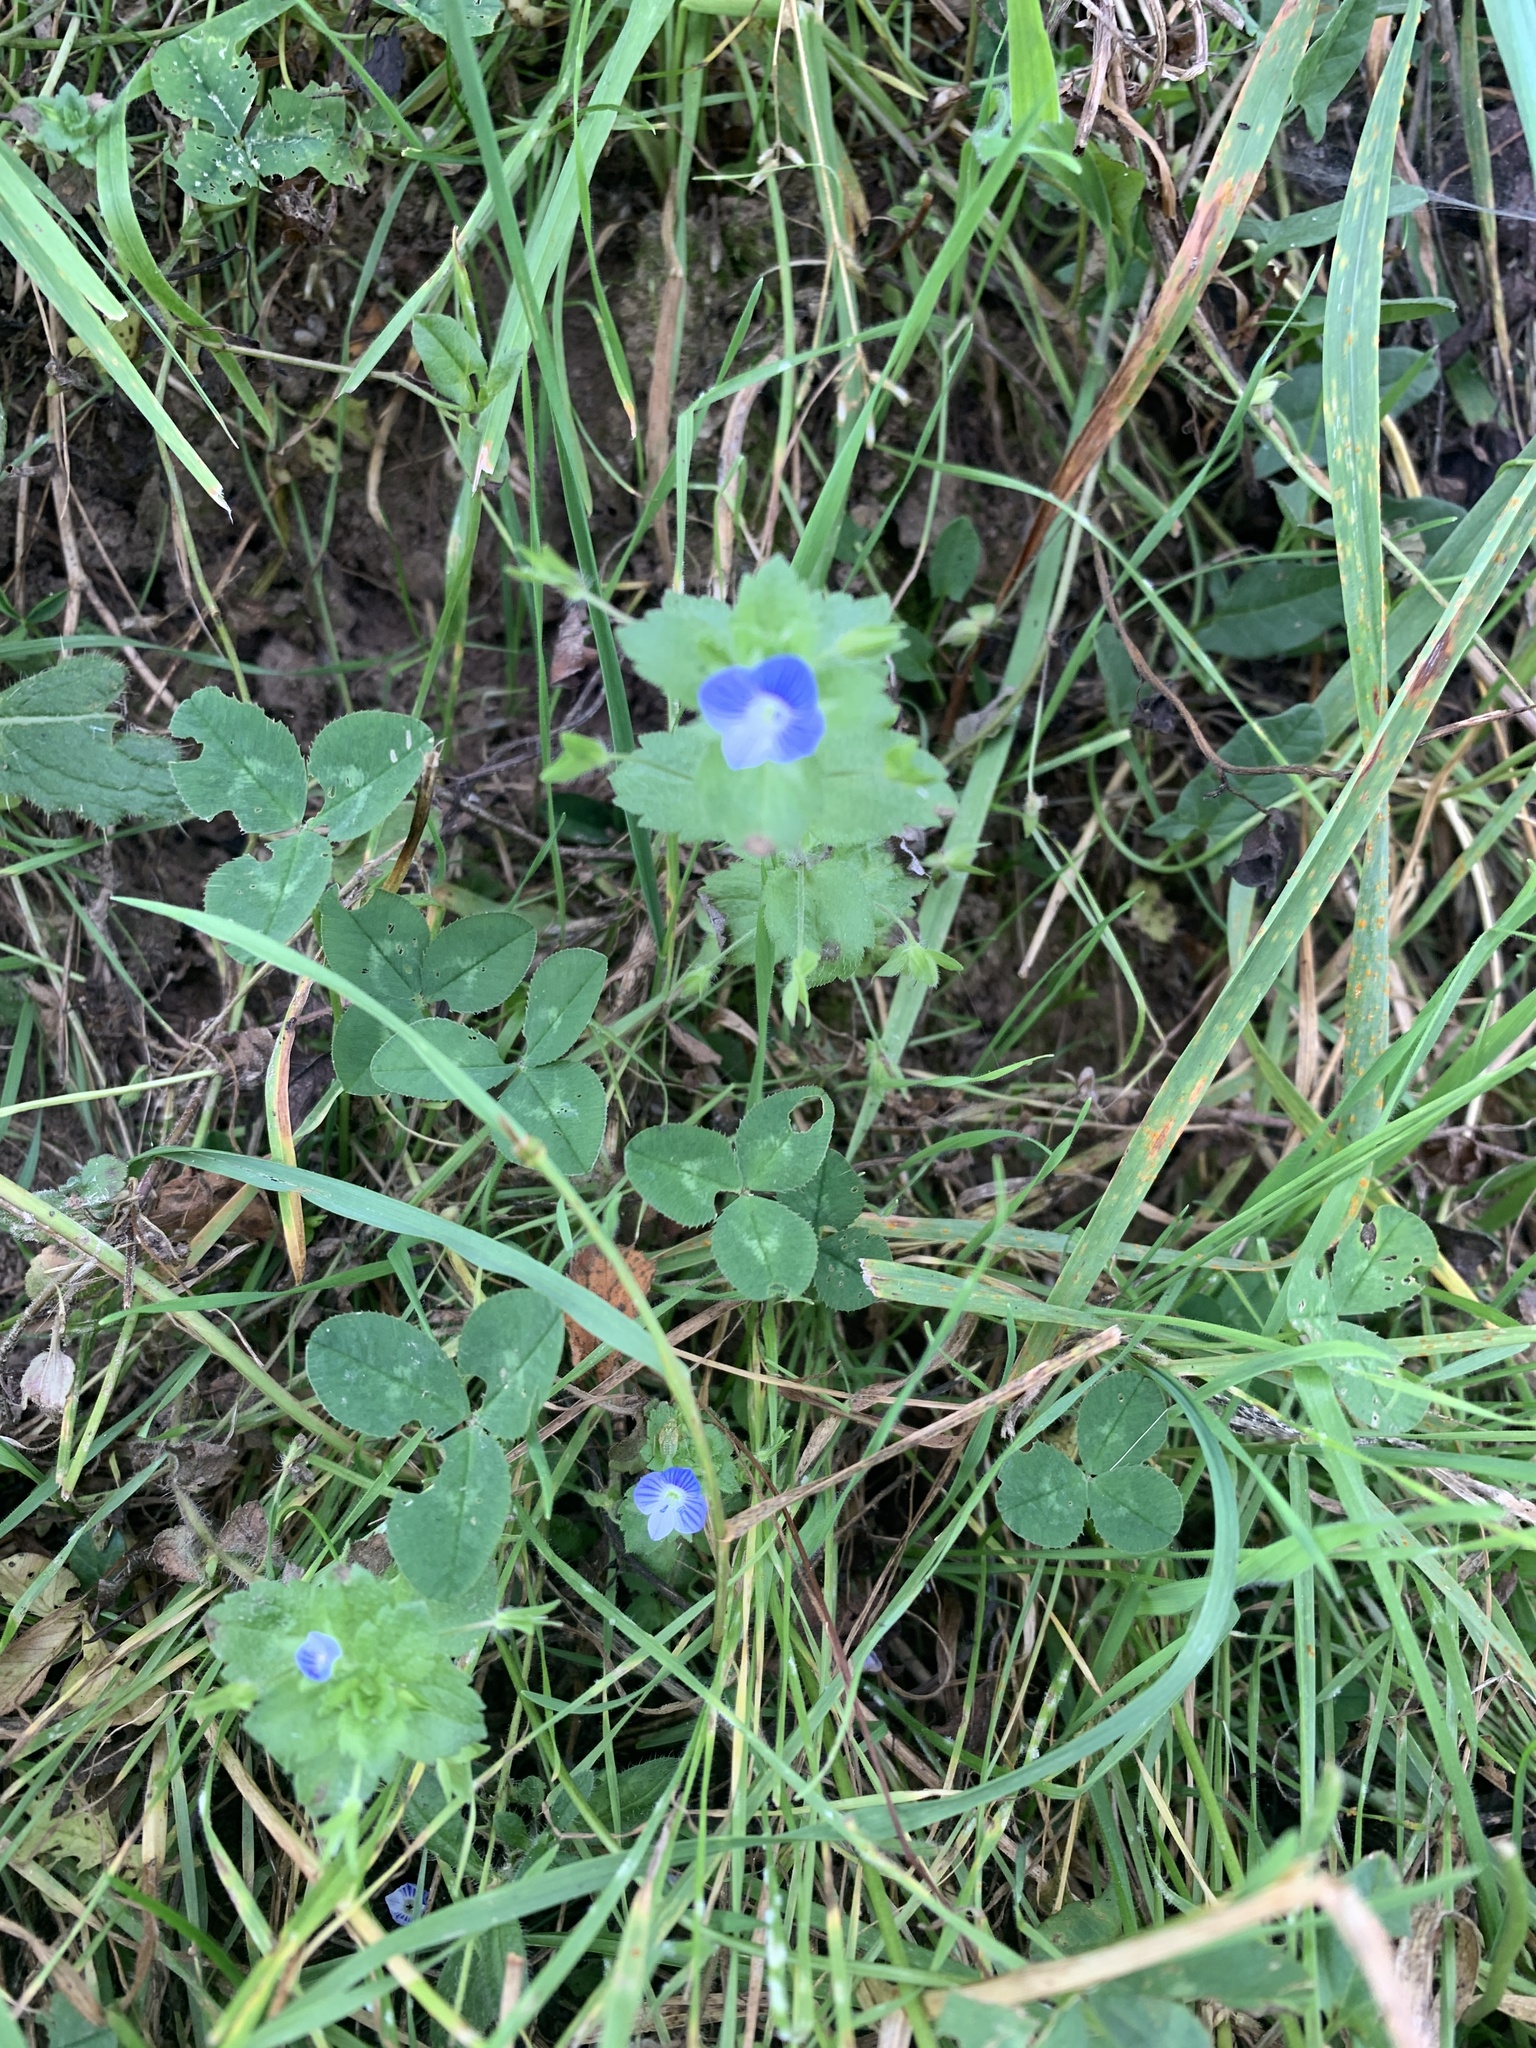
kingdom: Plantae
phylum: Tracheophyta
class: Magnoliopsida
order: Lamiales
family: Plantaginaceae
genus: Veronica
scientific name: Veronica persica
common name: Common field-speedwell
